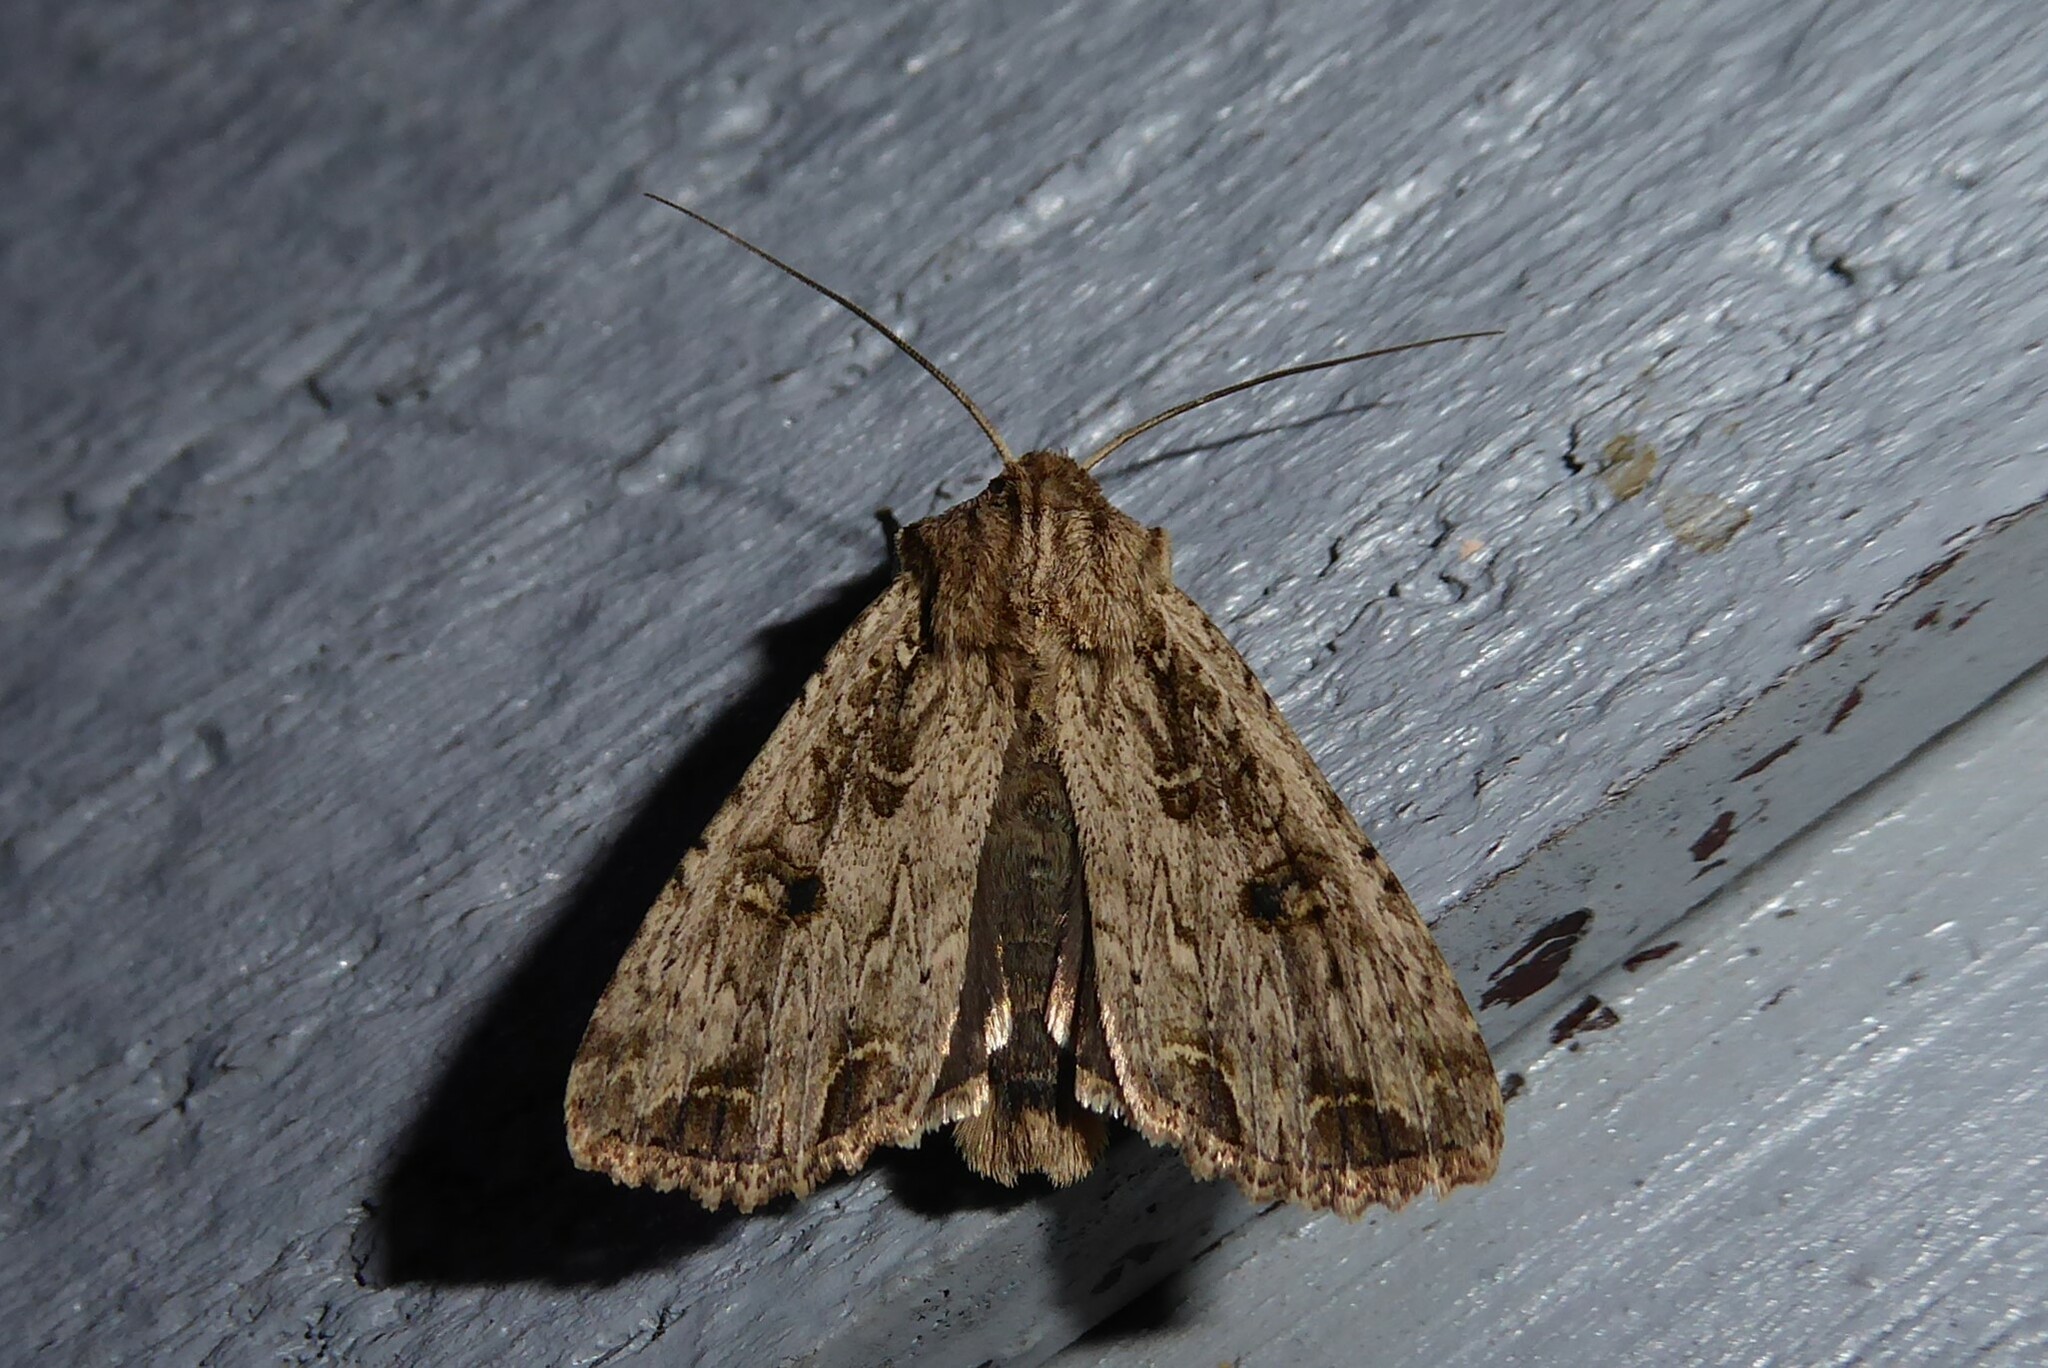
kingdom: Animalia
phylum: Arthropoda
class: Insecta
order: Lepidoptera
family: Noctuidae
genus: Ichneutica
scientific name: Ichneutica lignana
